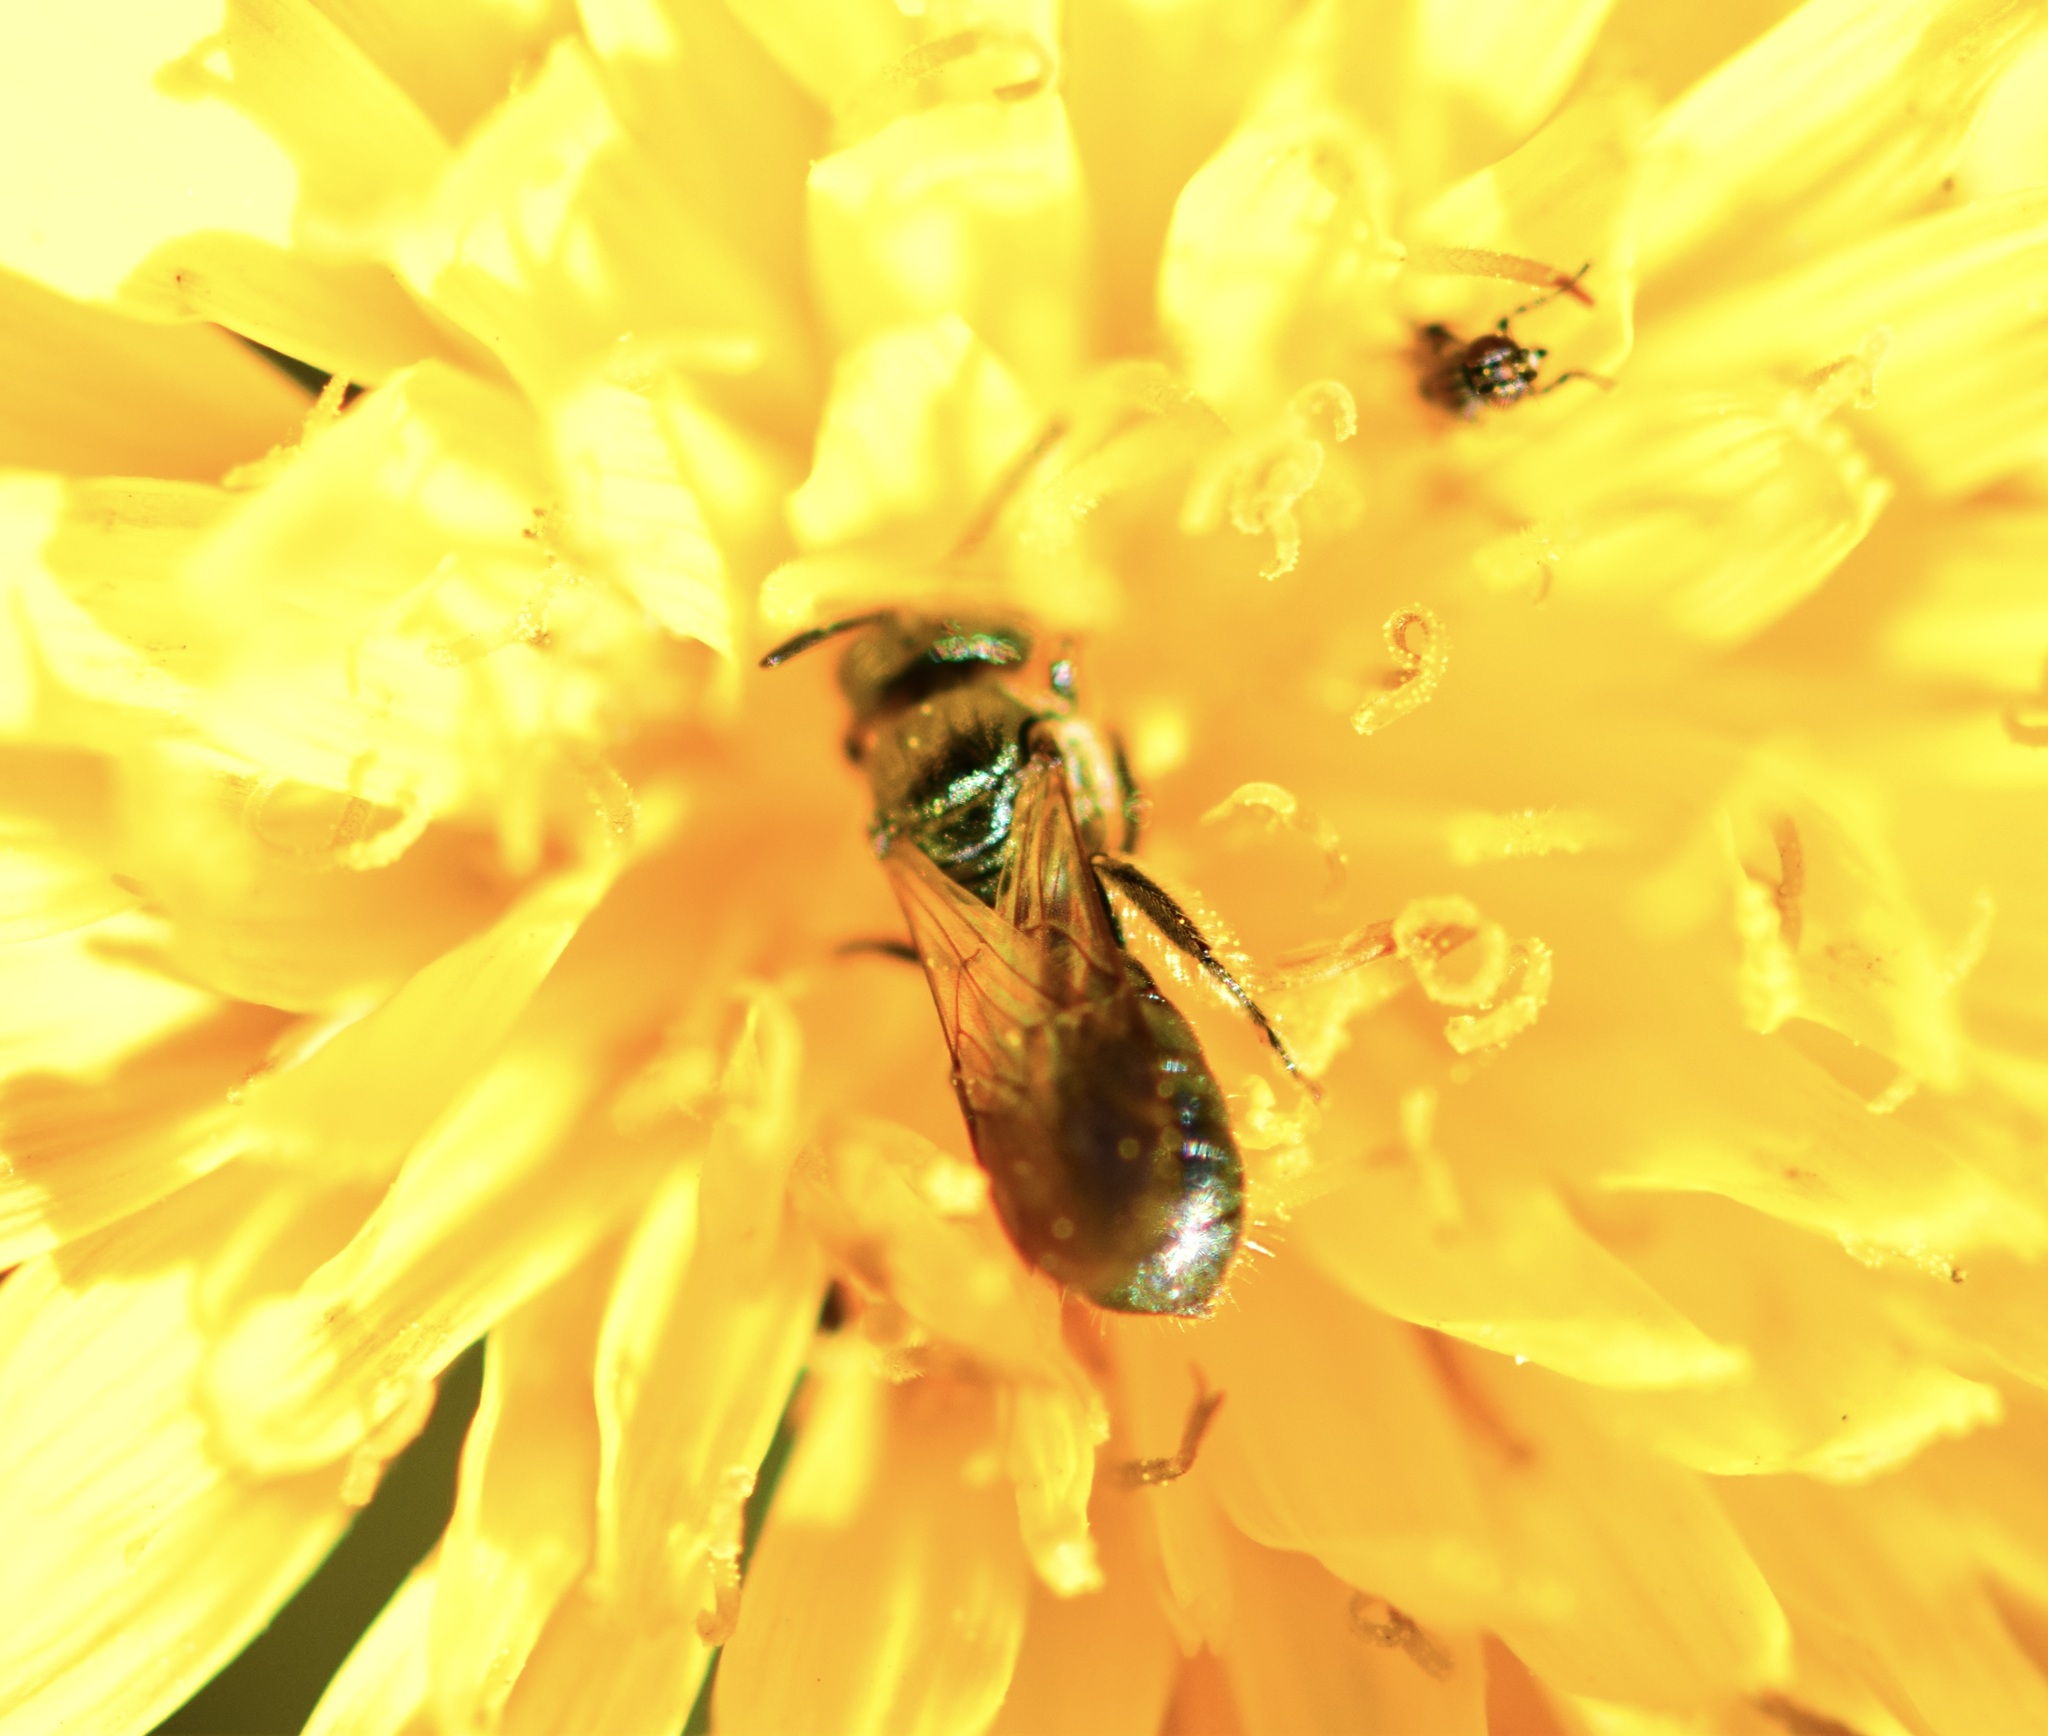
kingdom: Animalia
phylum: Arthropoda
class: Insecta
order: Hymenoptera
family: Apidae
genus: Zadontomerus
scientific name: Zadontomerus
